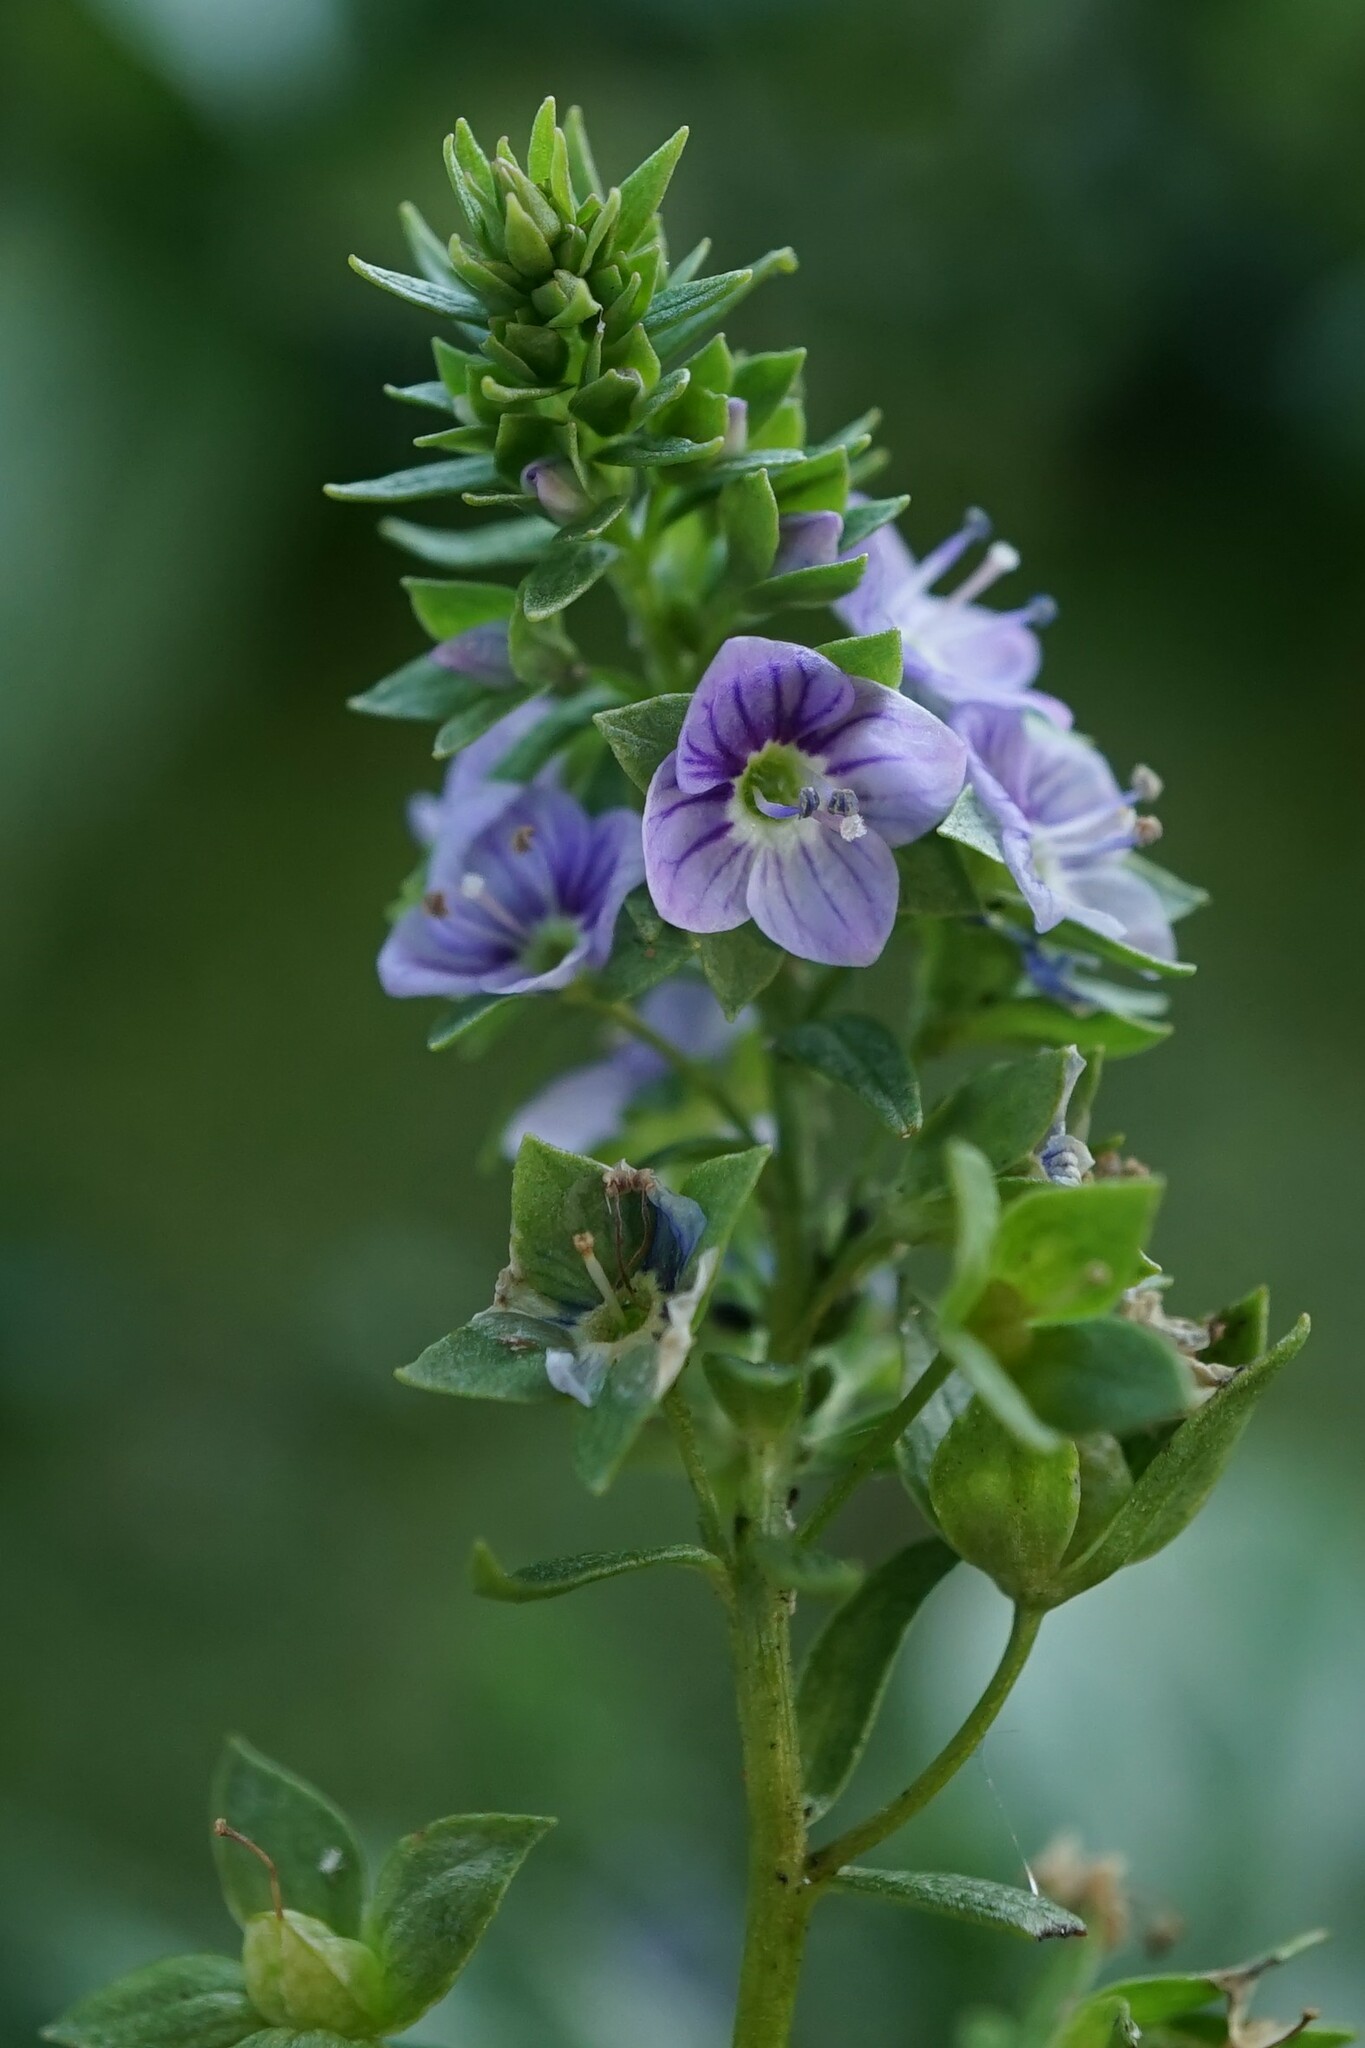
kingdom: Plantae
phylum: Tracheophyta
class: Magnoliopsida
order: Lamiales
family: Plantaginaceae
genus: Veronica
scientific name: Veronica anagallis-aquatica
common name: Water speedwell
